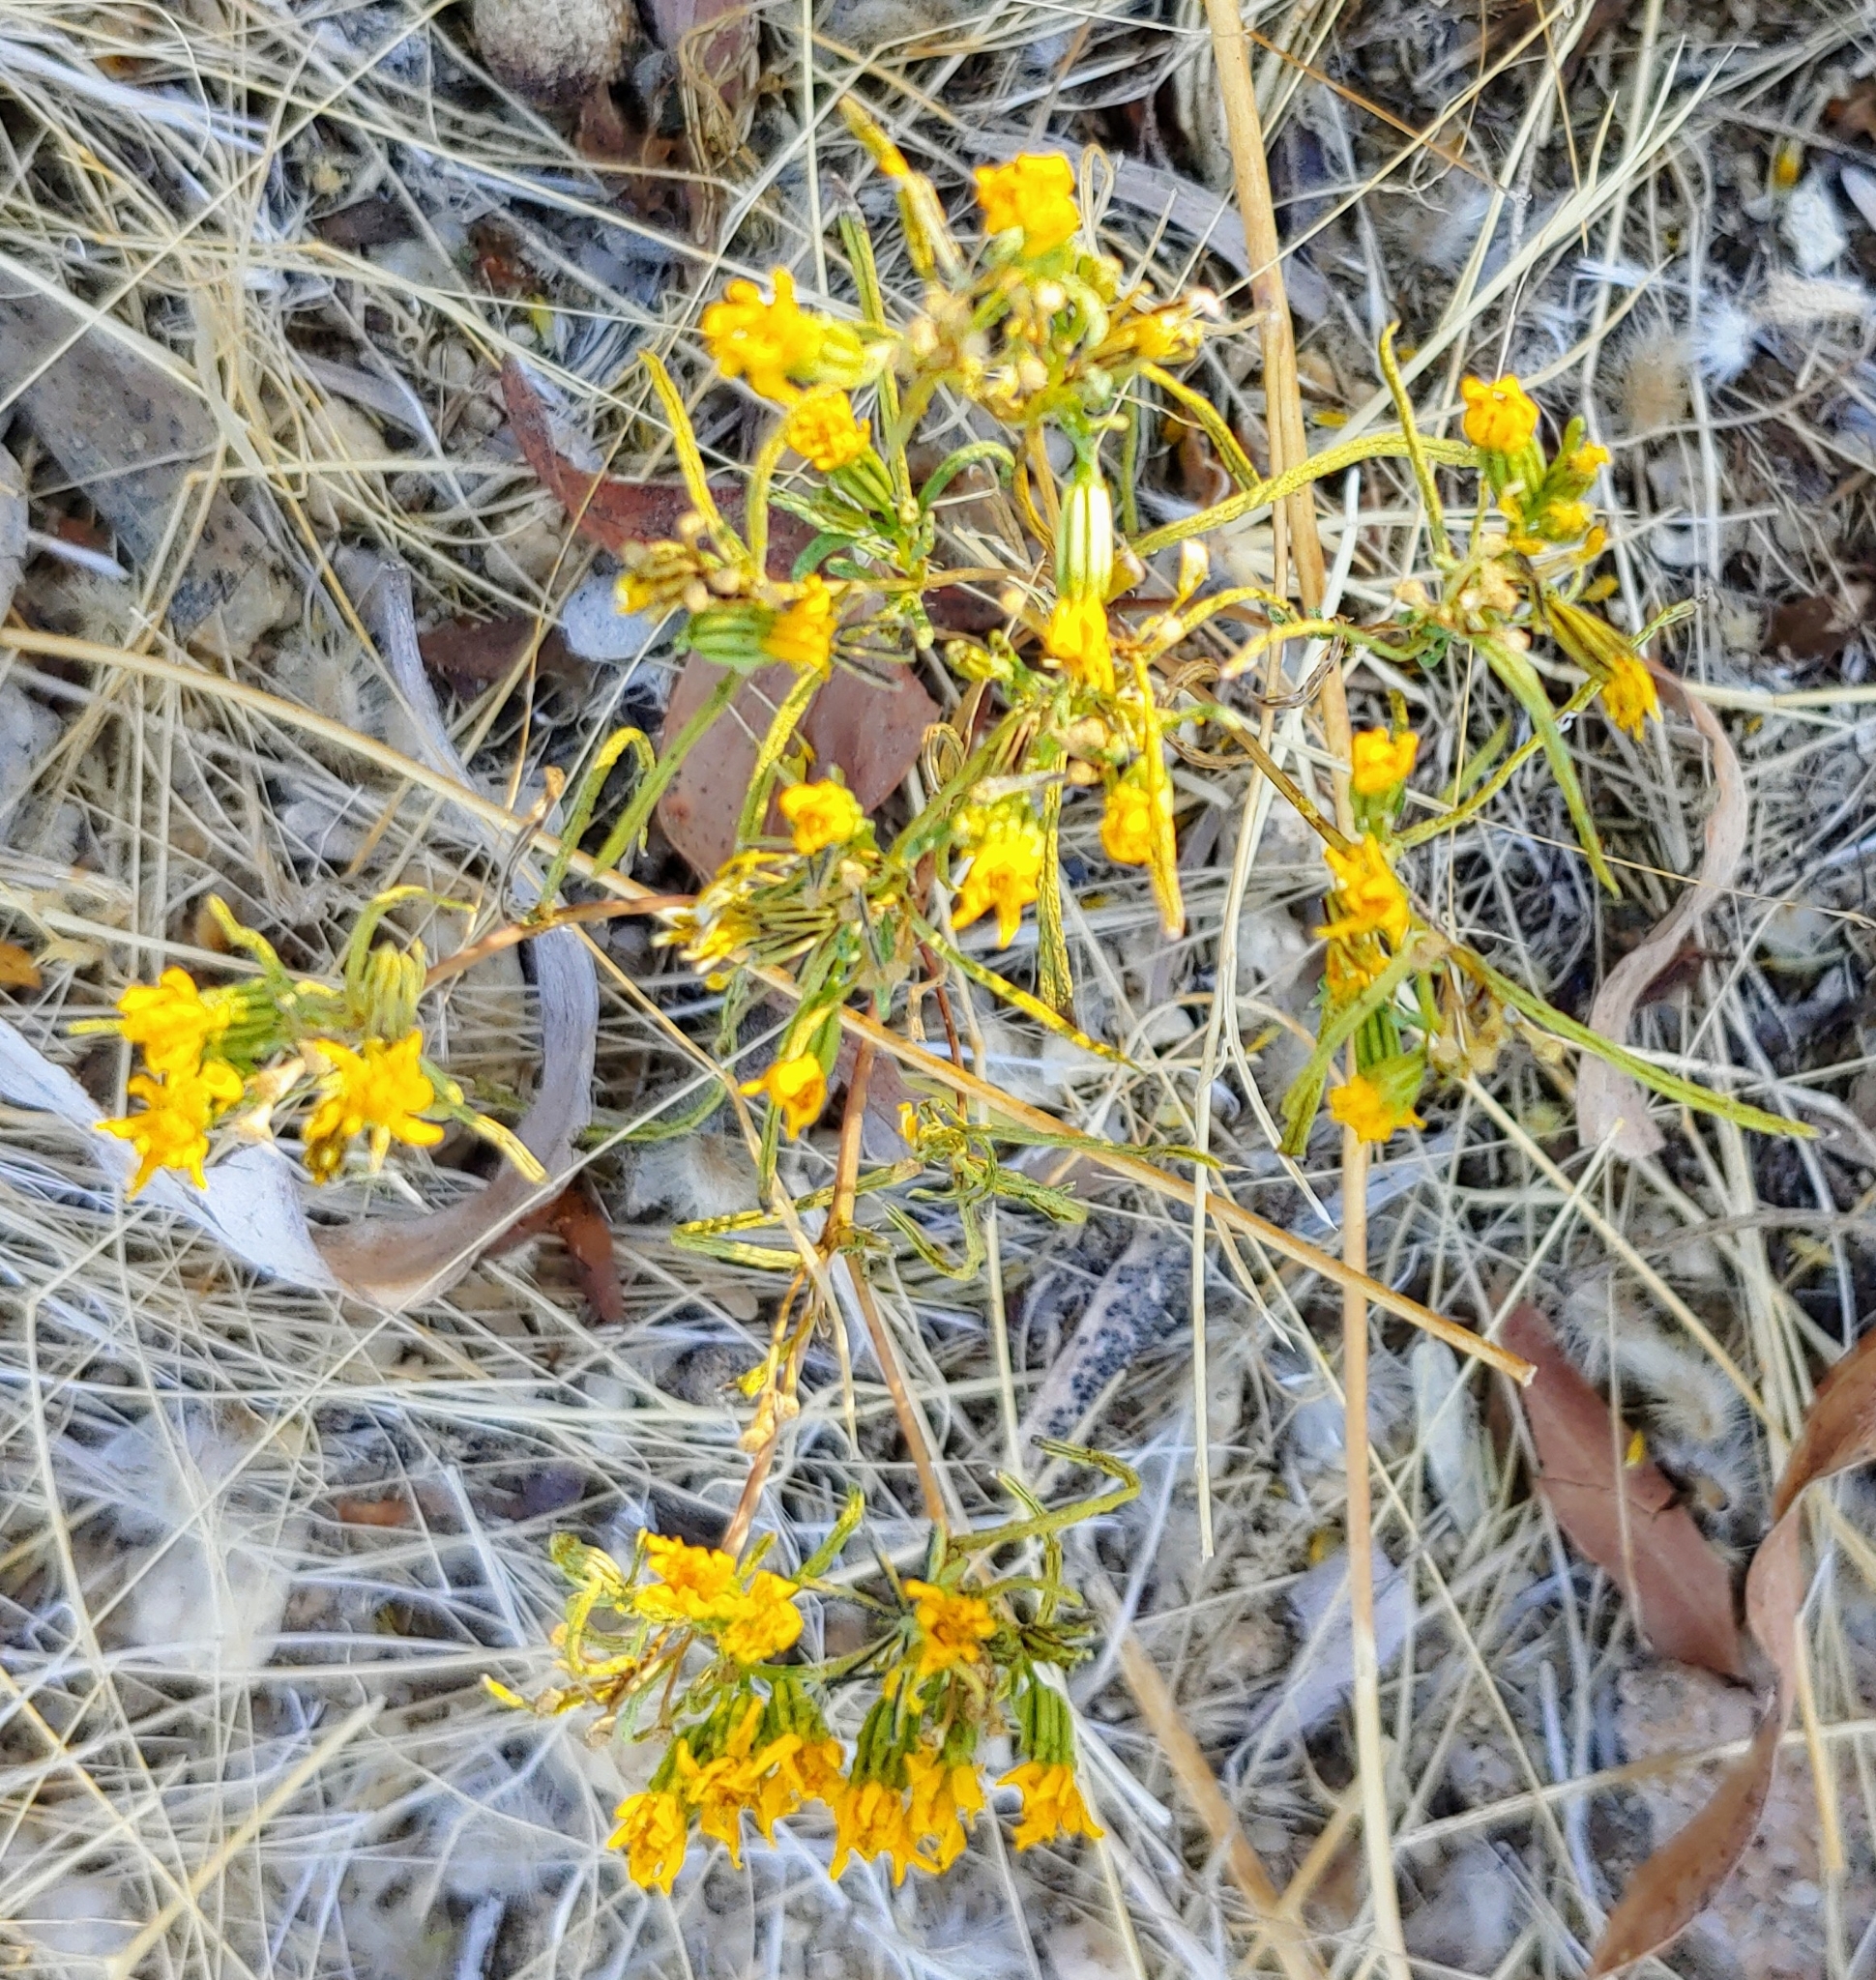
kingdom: Plantae
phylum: Tracheophyta
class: Magnoliopsida
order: Asterales
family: Asteraceae
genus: Pectis
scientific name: Pectis papposa
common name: Many-bristle chinchweed
